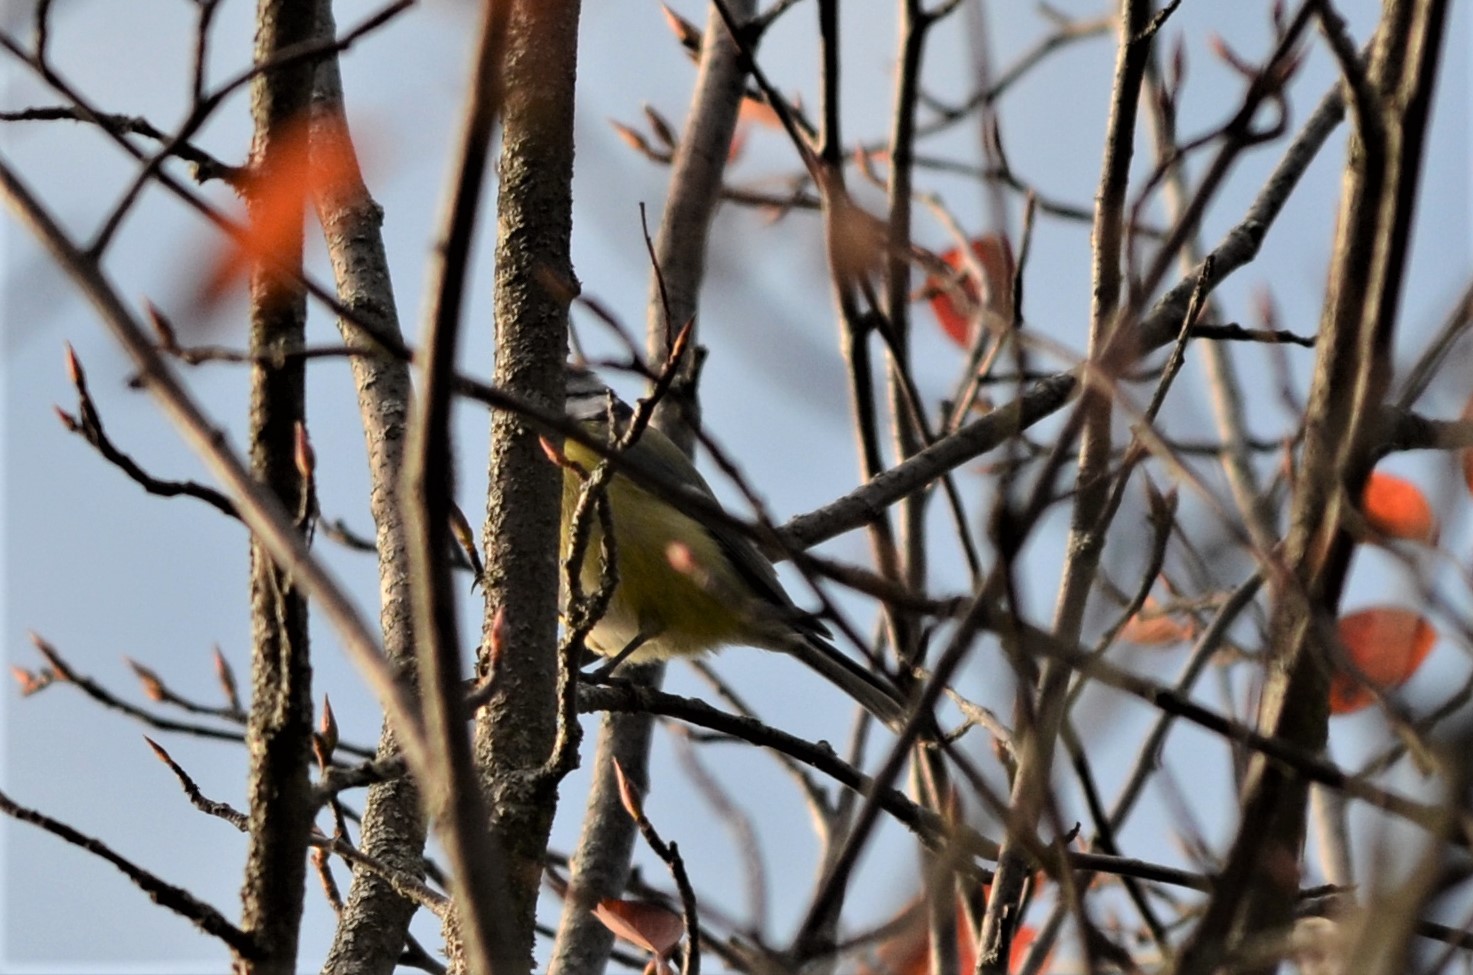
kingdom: Animalia
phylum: Chordata
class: Aves
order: Passeriformes
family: Paridae
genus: Cyanistes
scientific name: Cyanistes caeruleus
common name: Eurasian blue tit
